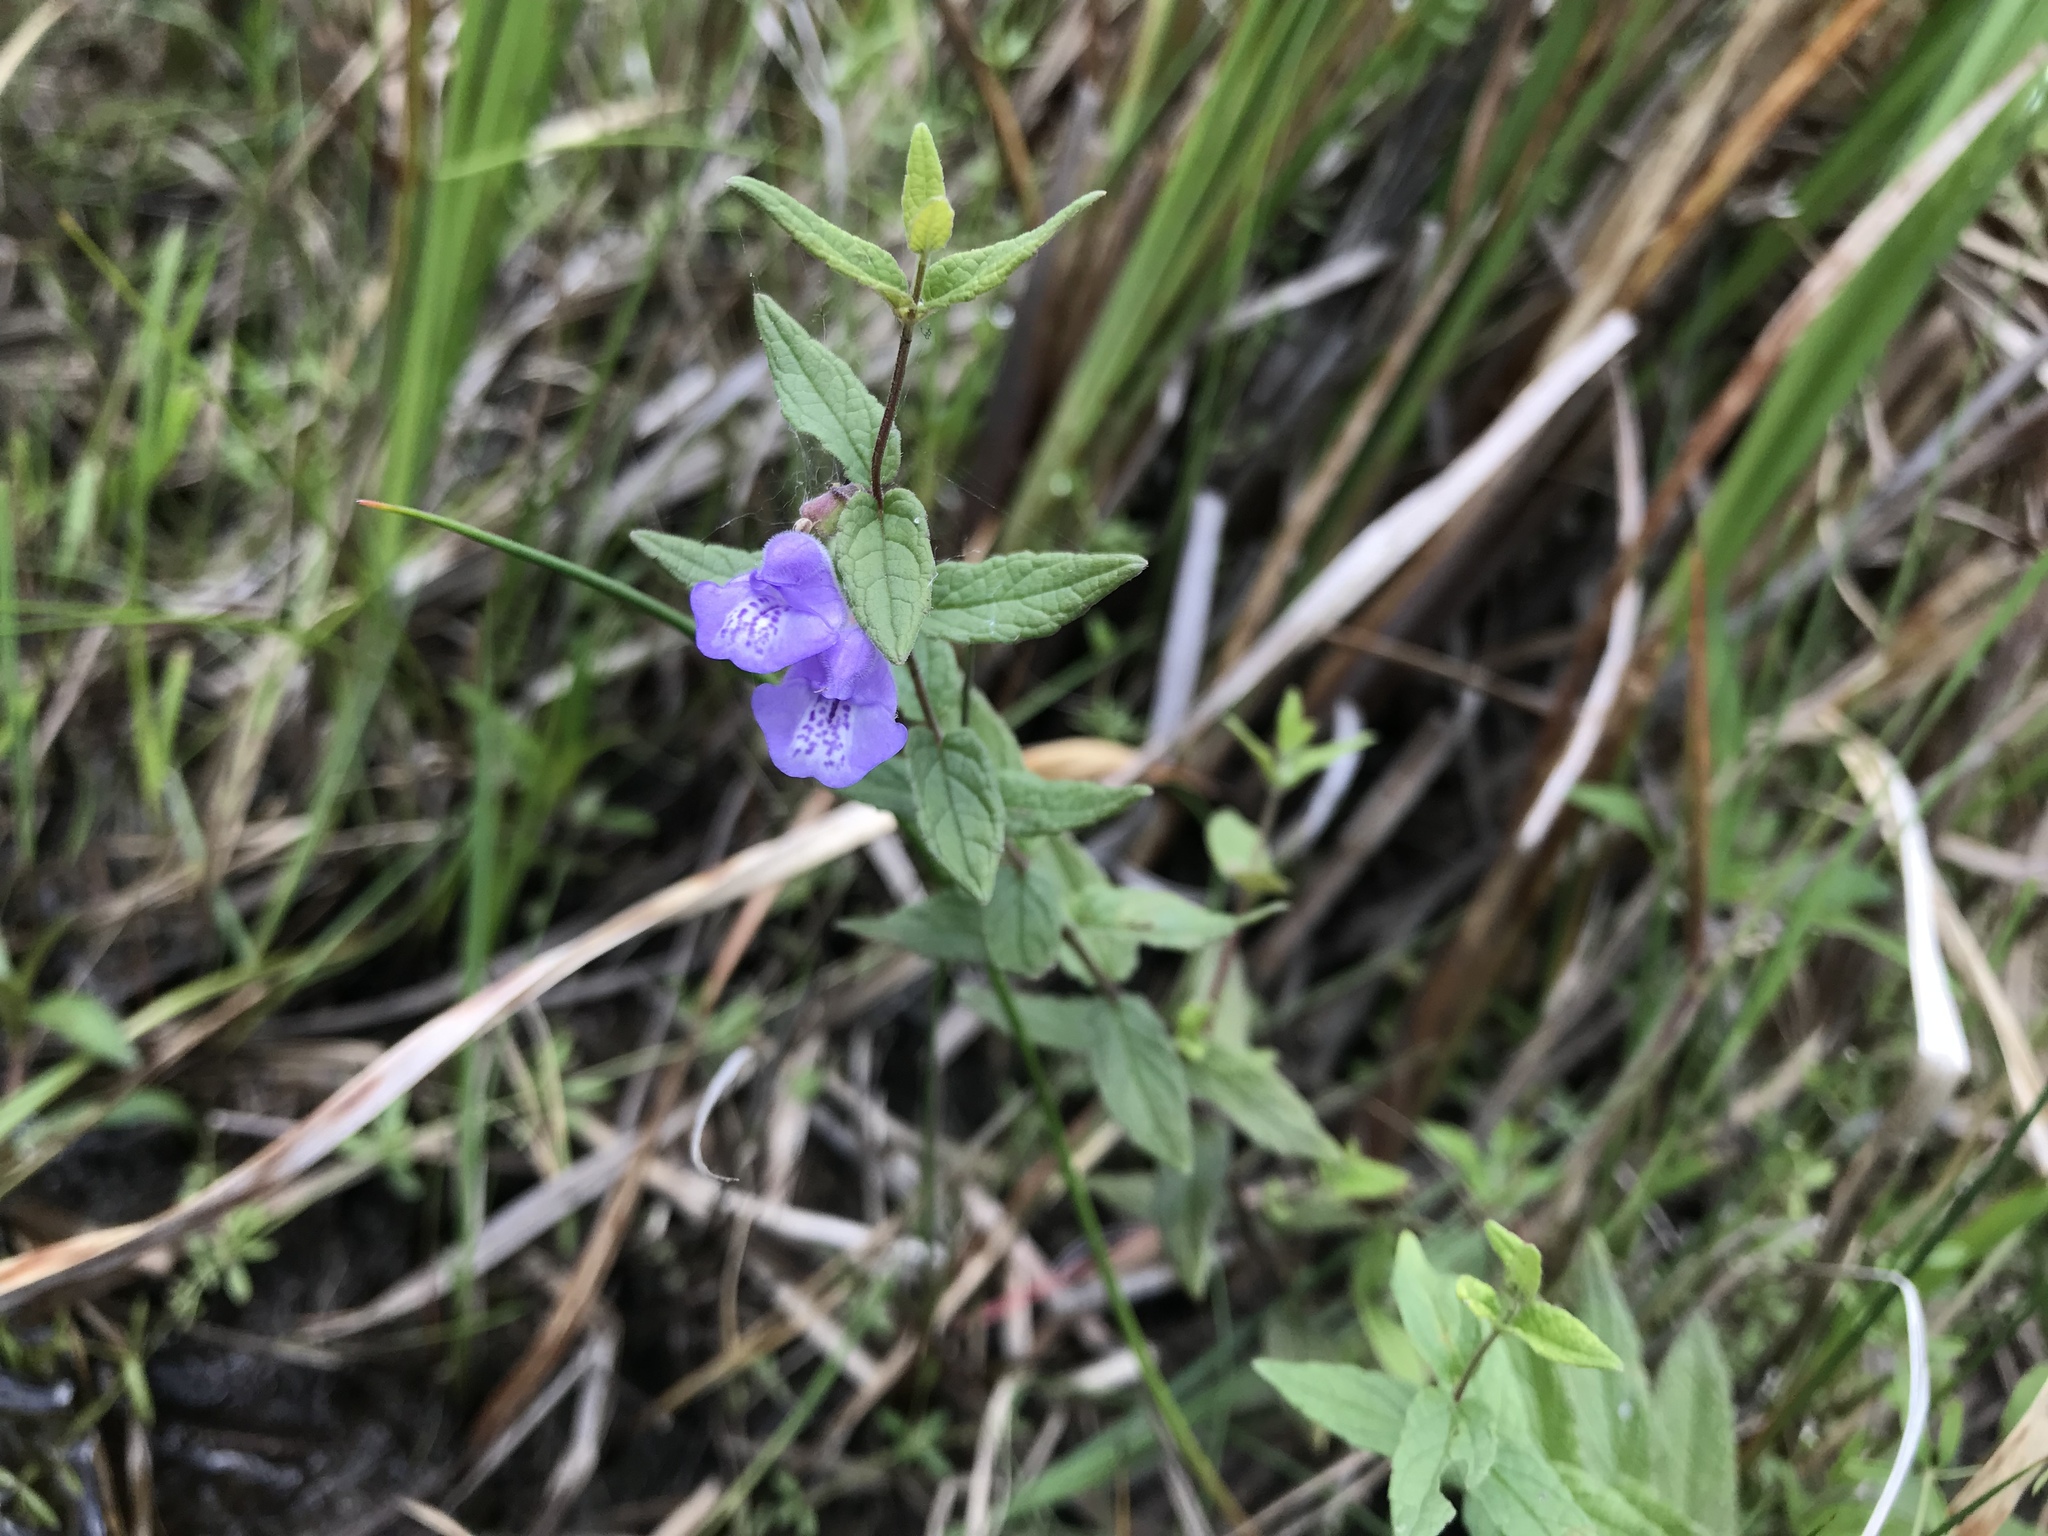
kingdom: Plantae
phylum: Tracheophyta
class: Magnoliopsida
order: Lamiales
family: Lamiaceae
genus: Scutellaria
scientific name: Scutellaria galericulata
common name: Skullcap
